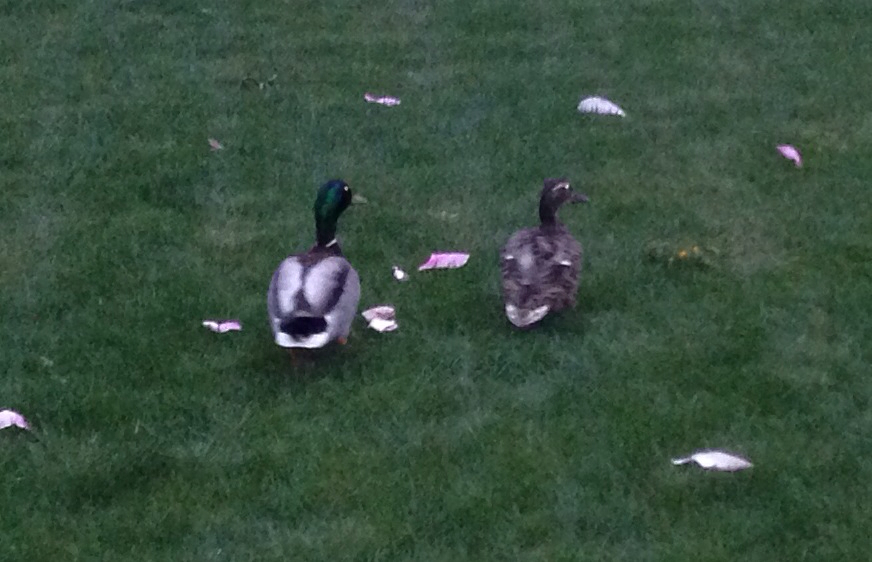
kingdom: Animalia
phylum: Chordata
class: Aves
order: Anseriformes
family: Anatidae
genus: Anas
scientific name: Anas platyrhynchos
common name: Mallard
